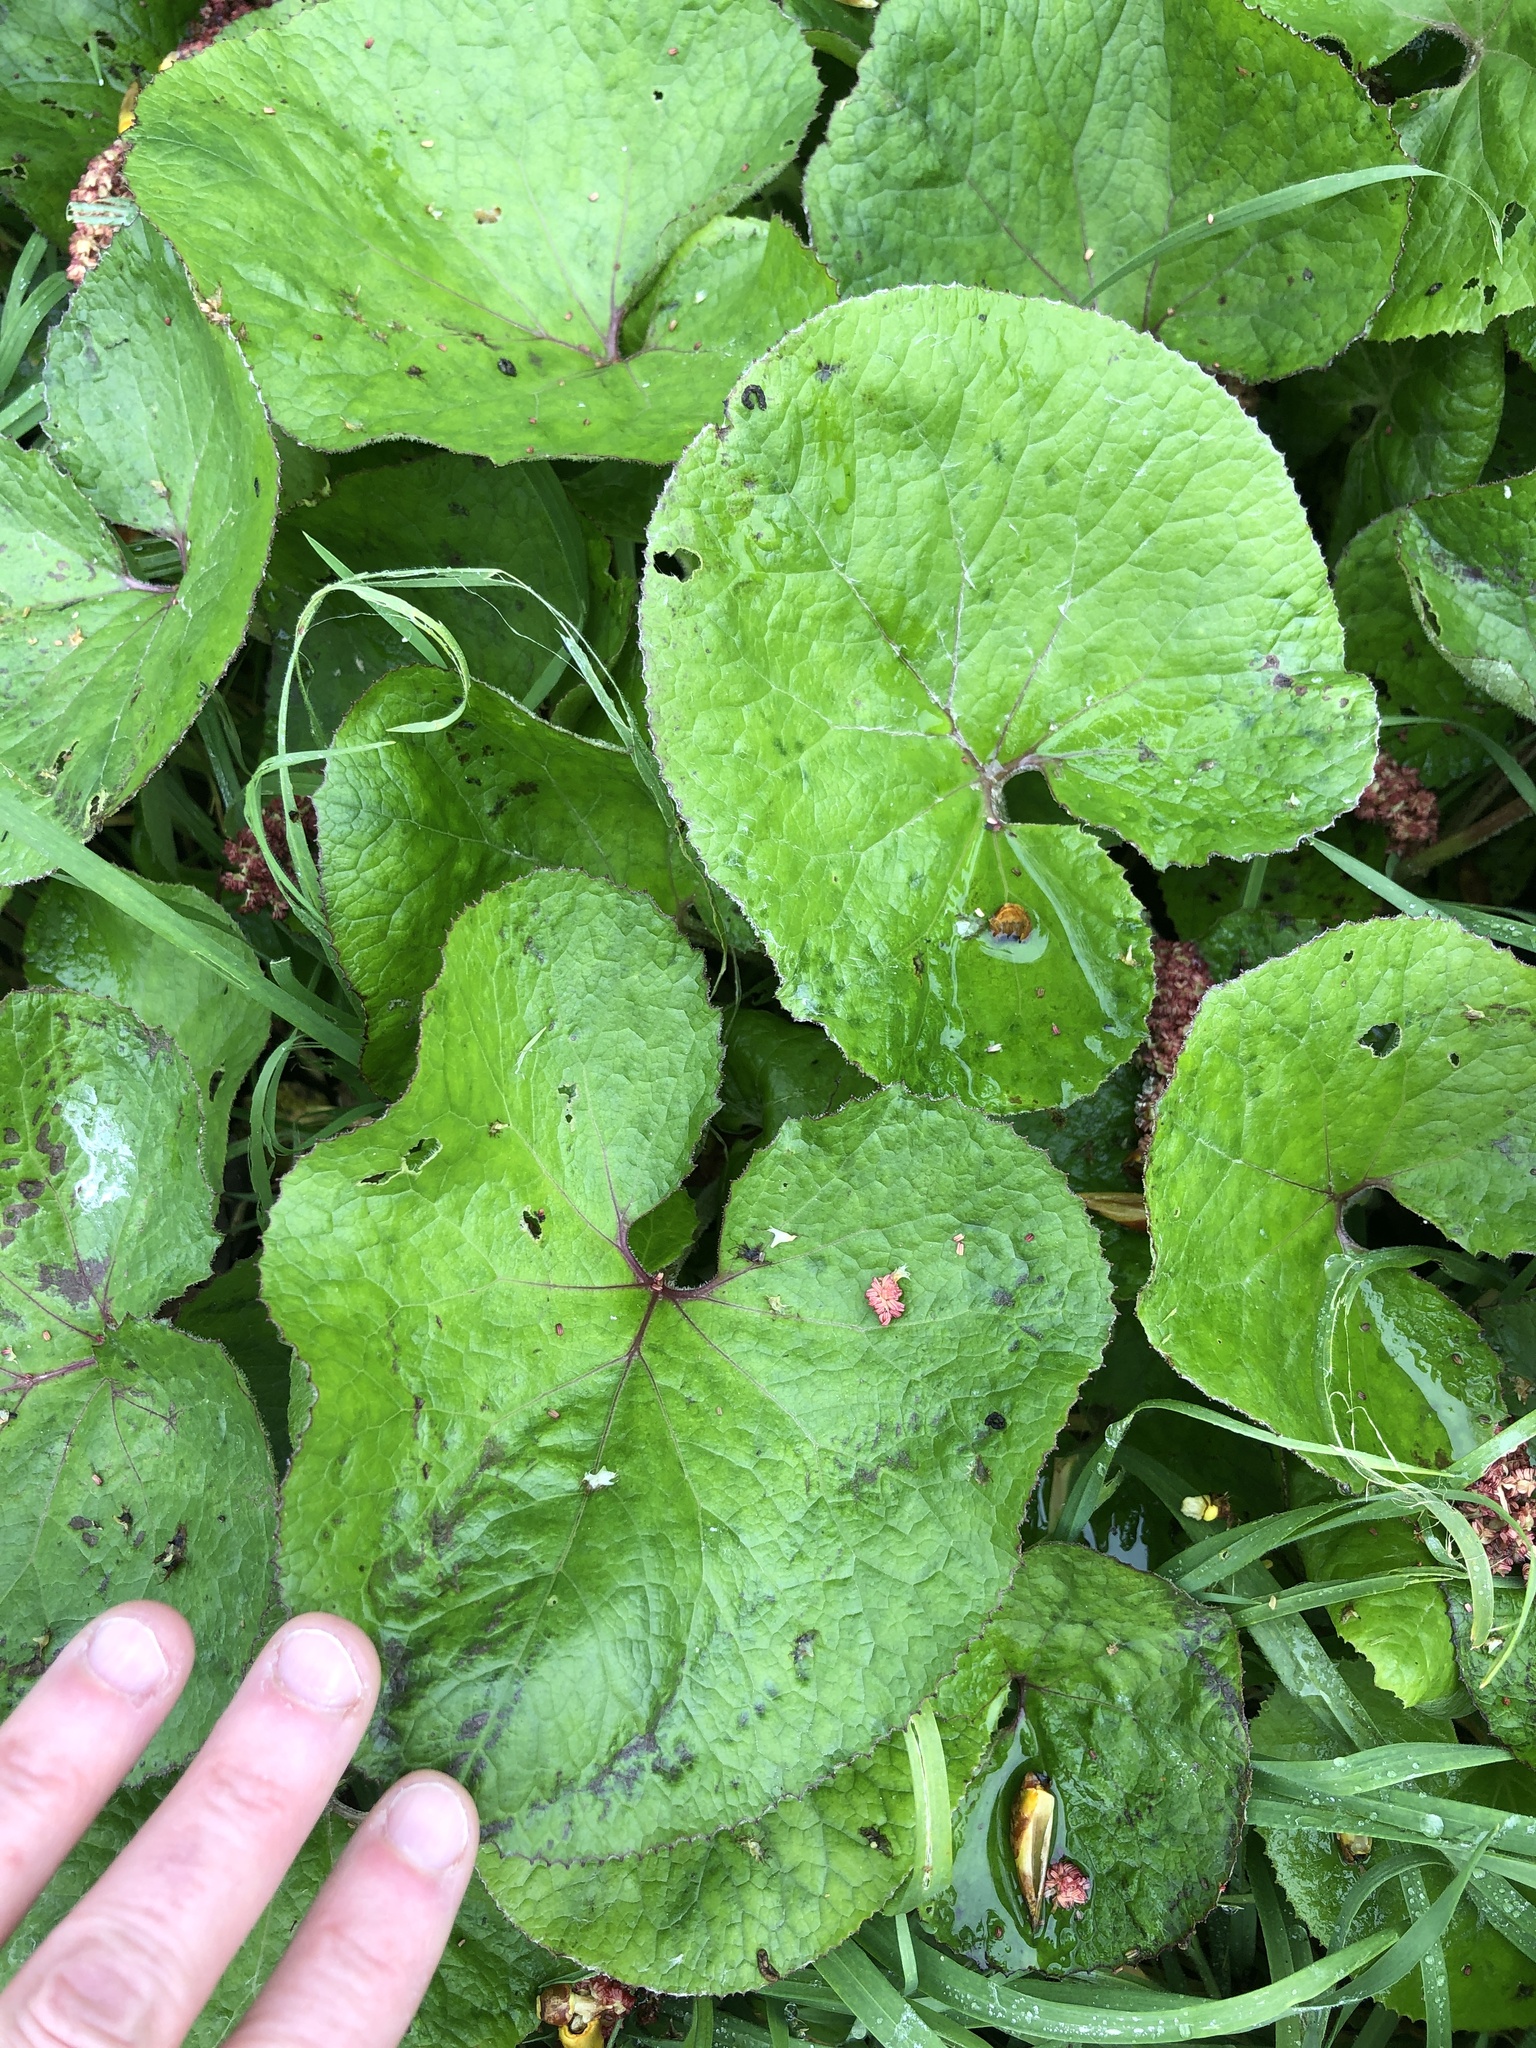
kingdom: Plantae
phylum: Tracheophyta
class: Magnoliopsida
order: Asterales
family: Asteraceae
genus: Petasites
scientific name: Petasites pyrenaicus
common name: Winter heliotrope
